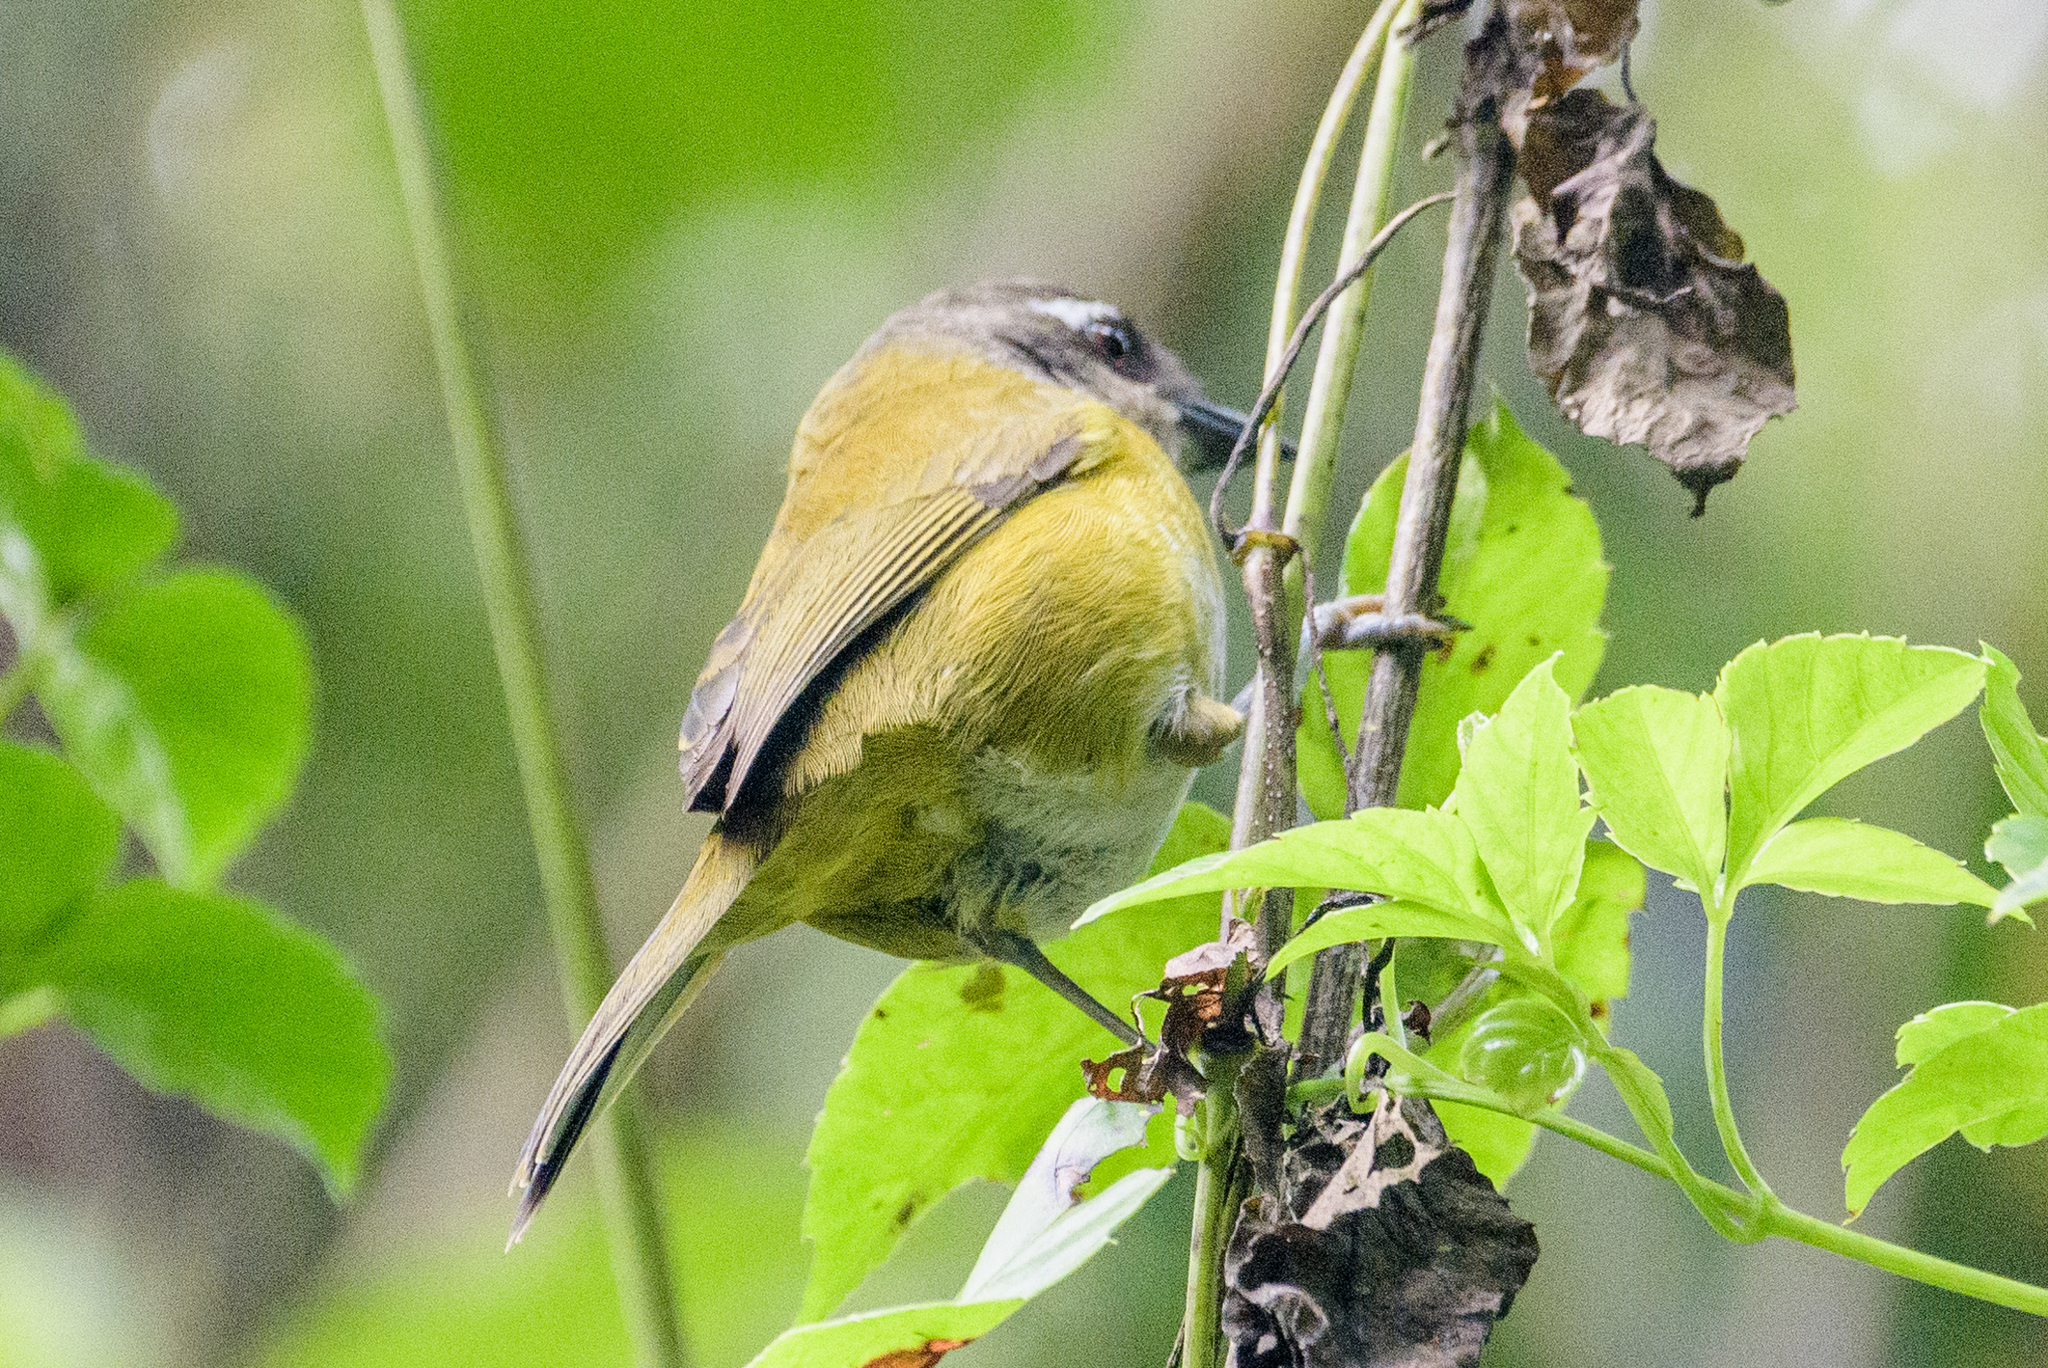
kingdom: Animalia
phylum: Chordata
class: Aves
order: Passeriformes
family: Passerellidae
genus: Chlorospingus
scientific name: Chlorospingus flavopectus
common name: Common chlorospingus
